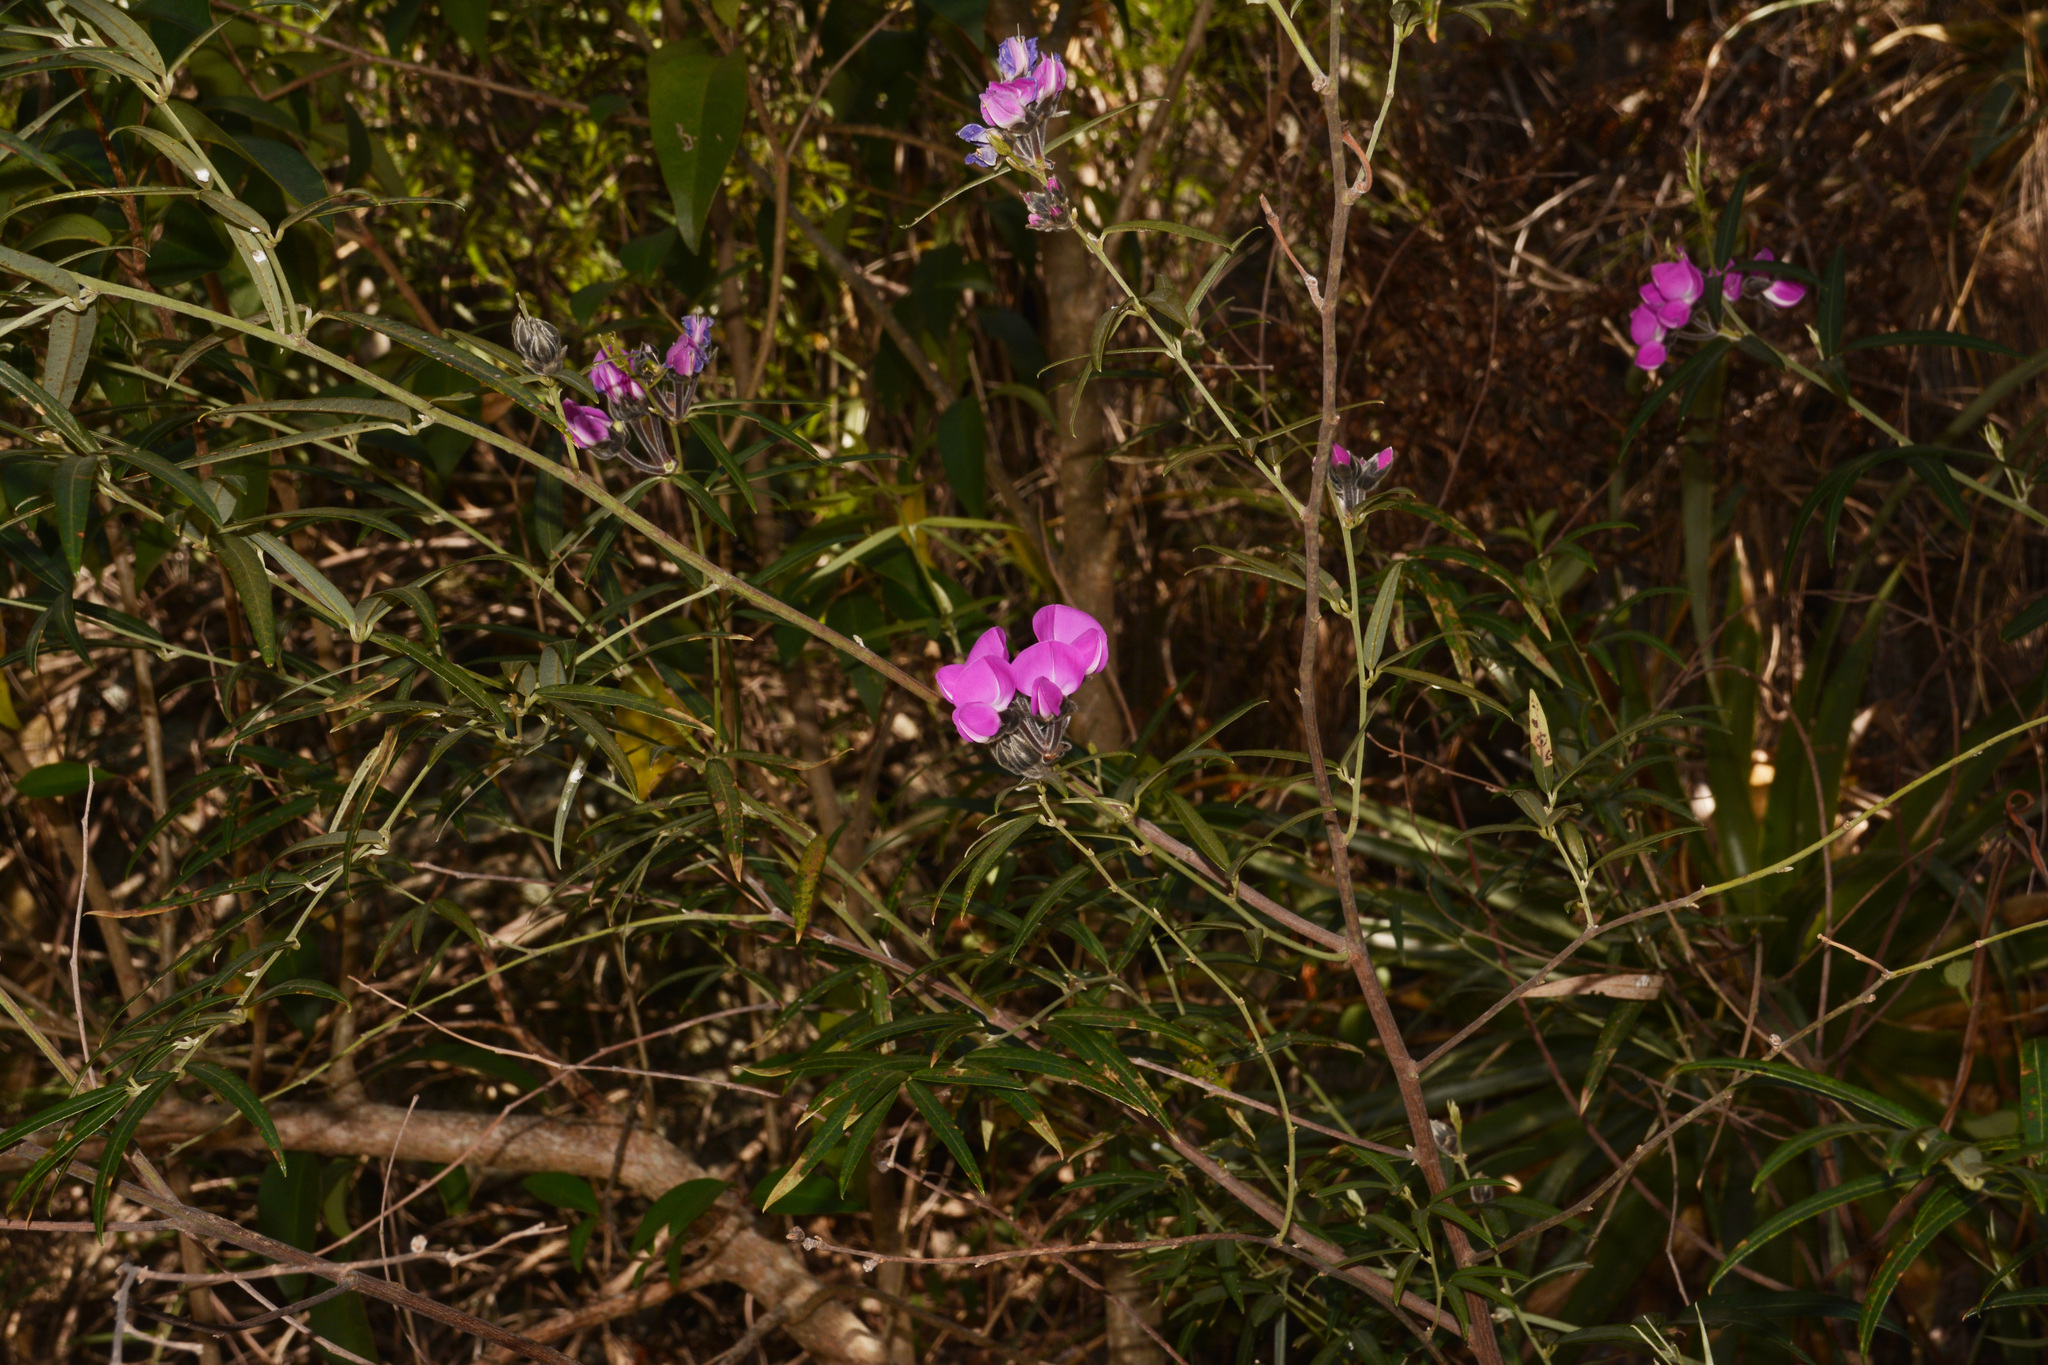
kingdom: Plantae
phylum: Tracheophyta
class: Magnoliopsida
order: Fabales
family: Fabaceae
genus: Nanogalactia
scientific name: Nanogalactia heterophylla
